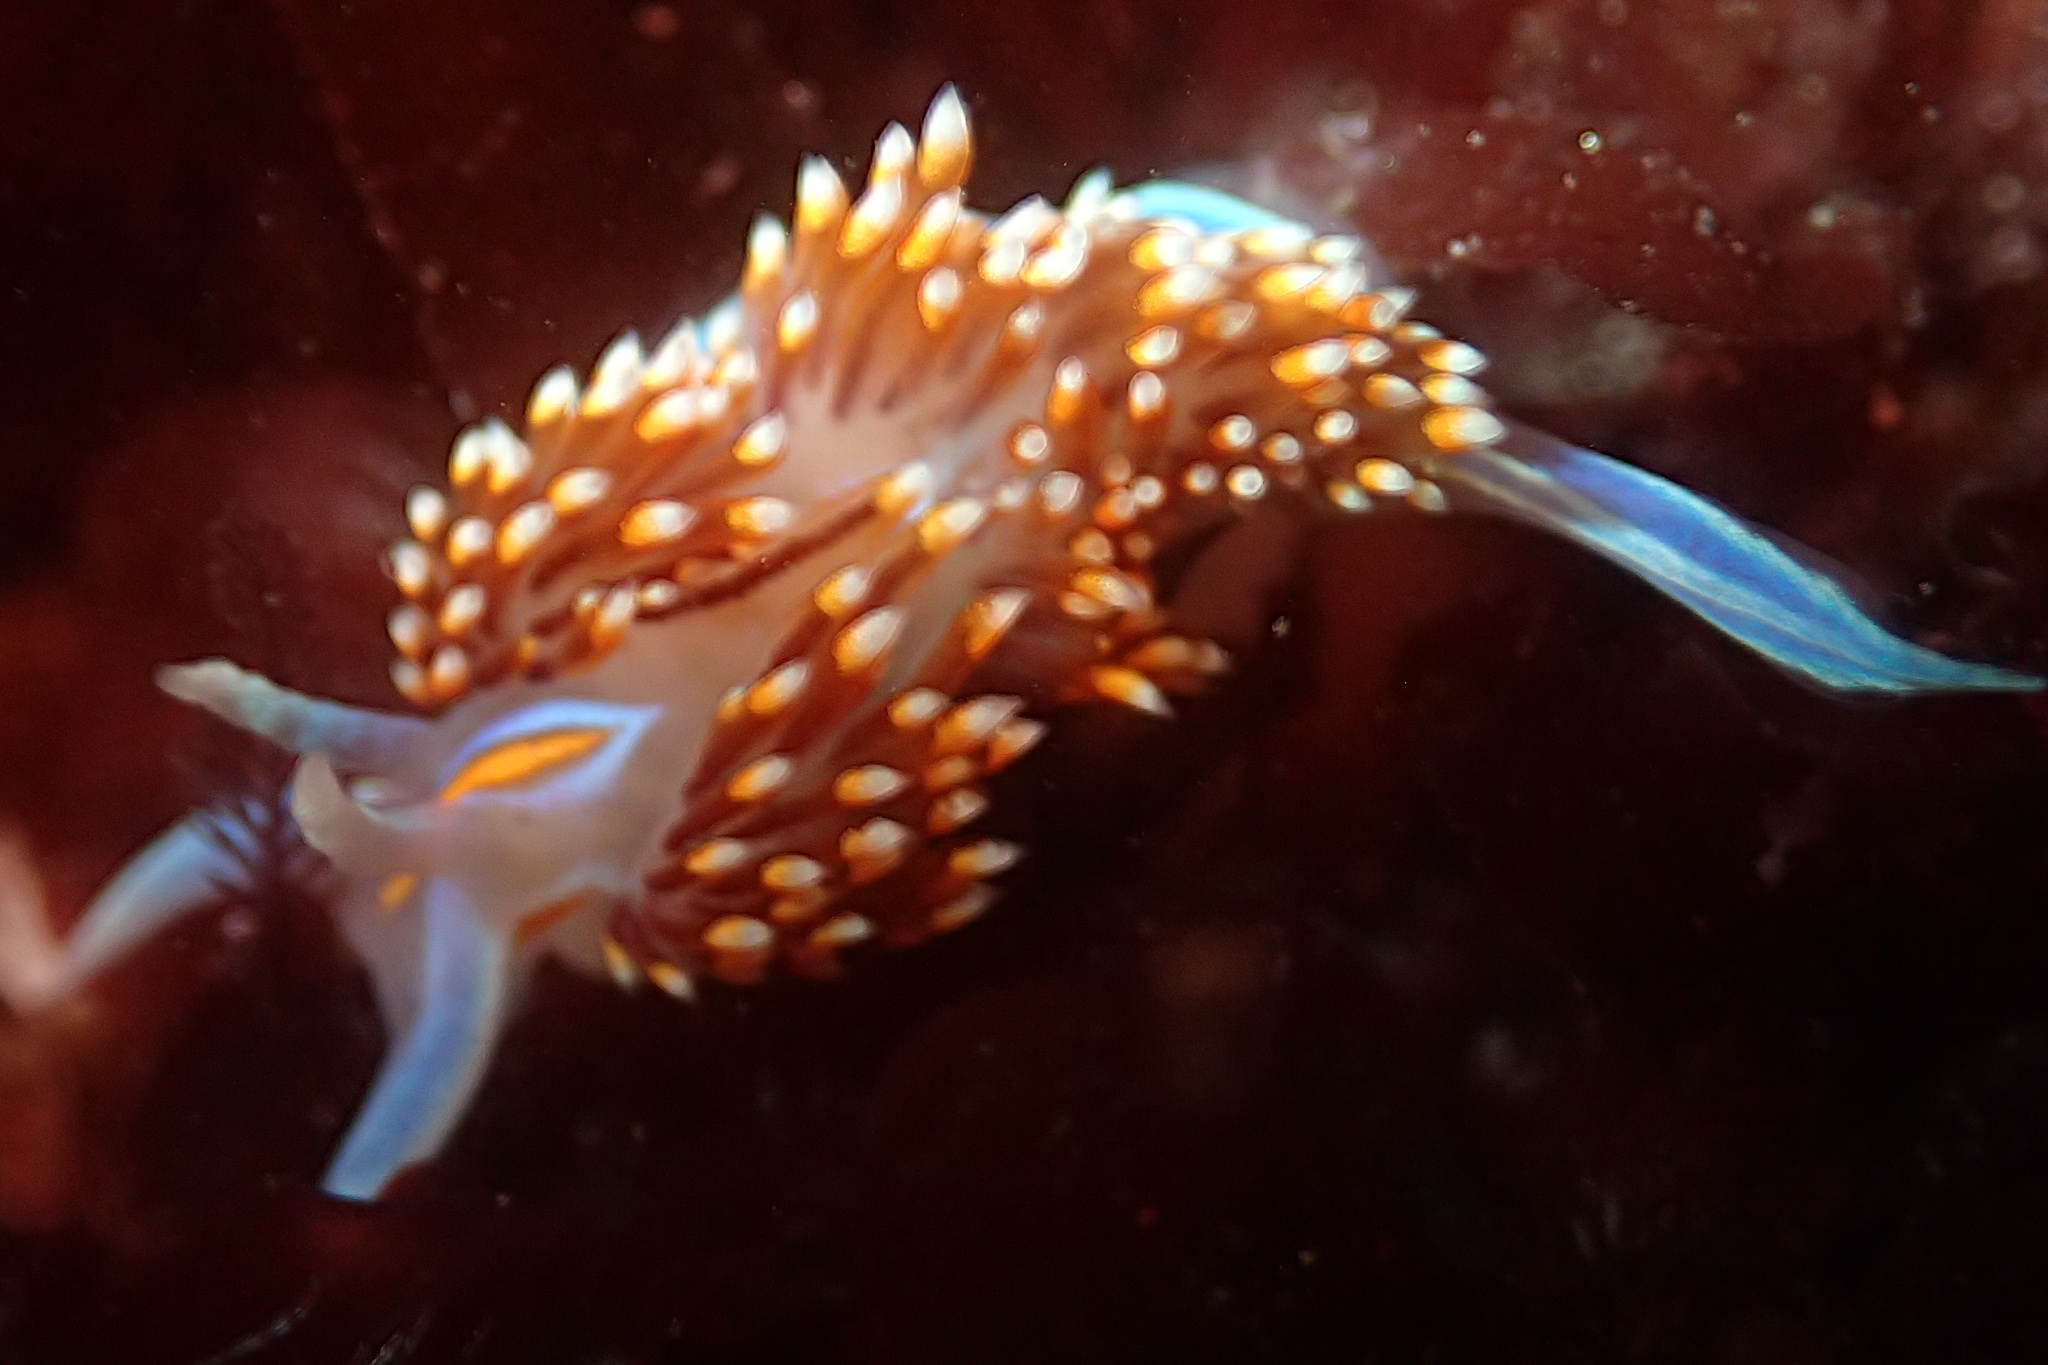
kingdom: Animalia
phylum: Mollusca
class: Gastropoda
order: Nudibranchia
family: Myrrhinidae
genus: Hermissenda
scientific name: Hermissenda opalescens
